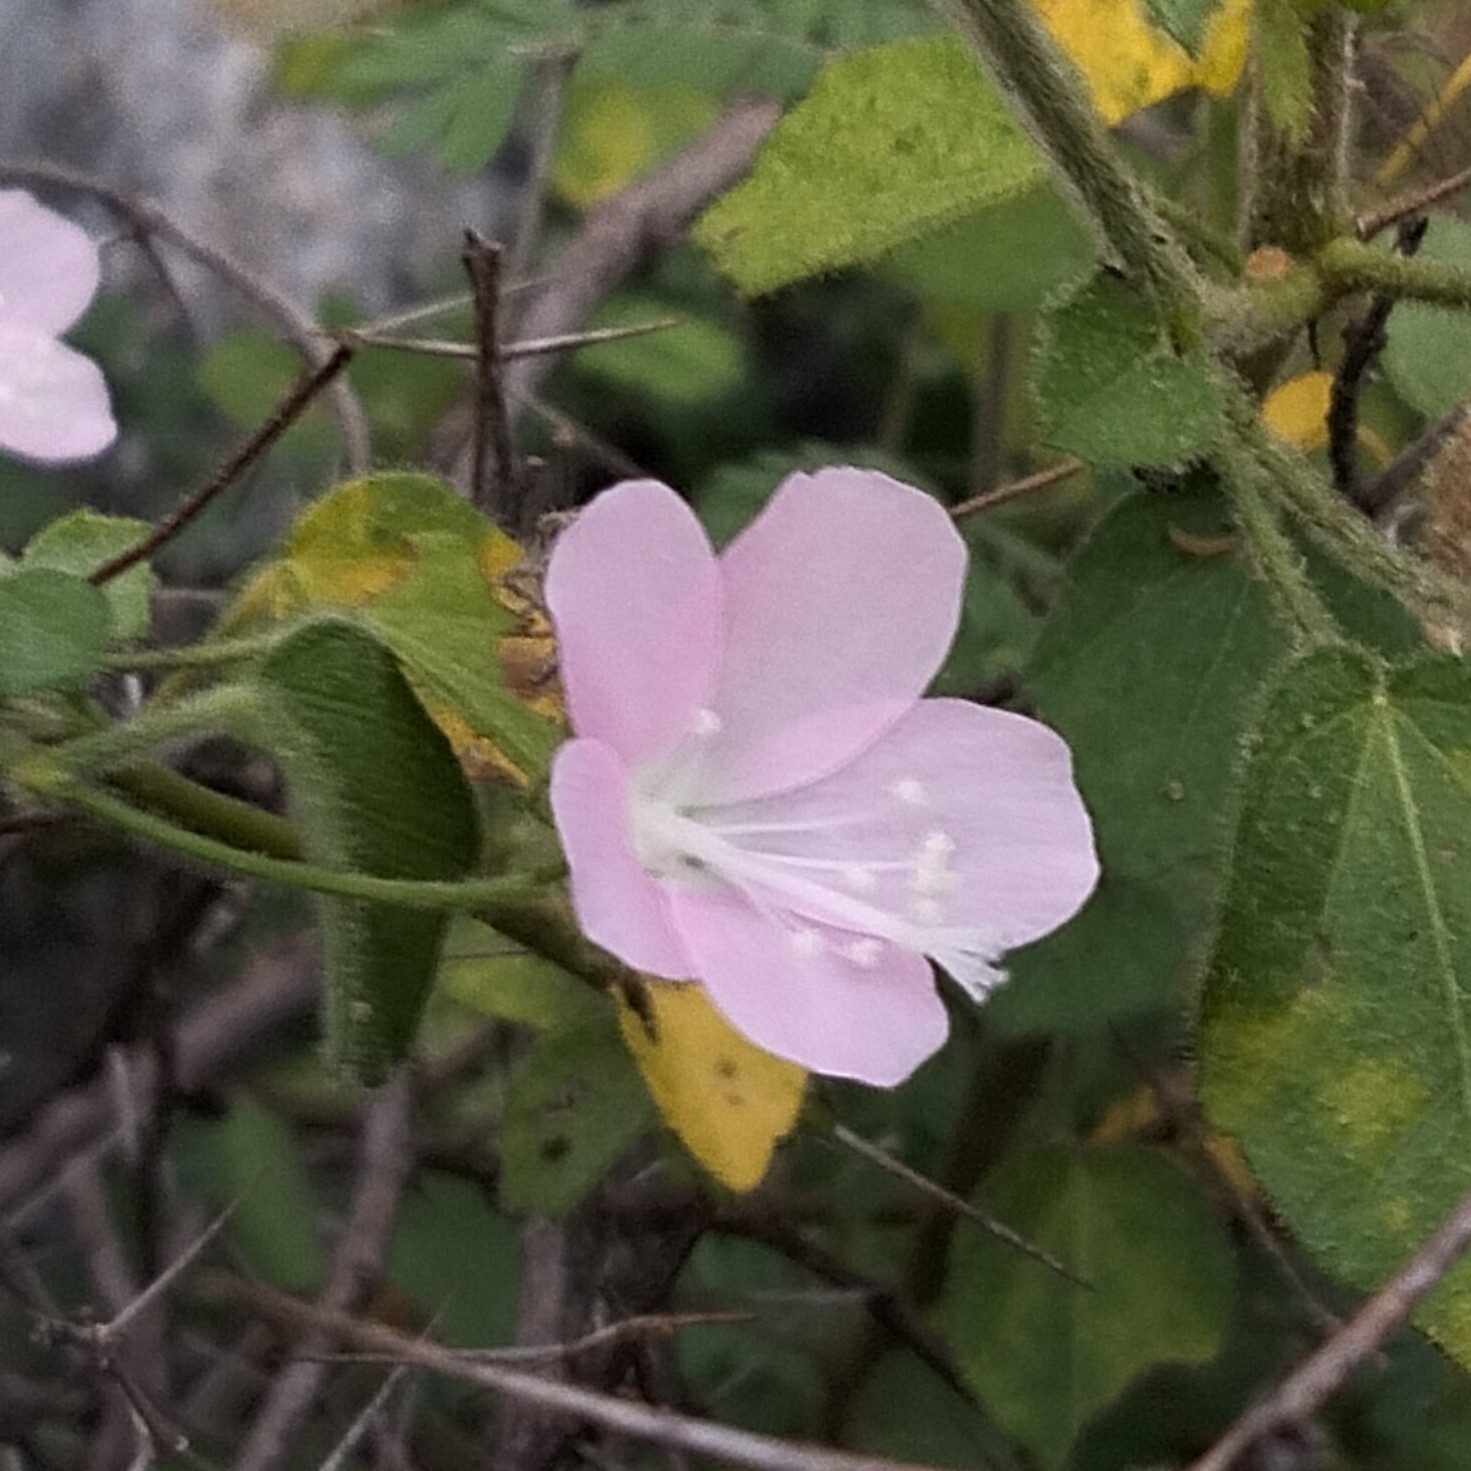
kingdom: Plantae
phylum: Tracheophyta
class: Magnoliopsida
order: Malvales
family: Malvaceae
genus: Pavonia
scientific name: Pavonia zeylonica
